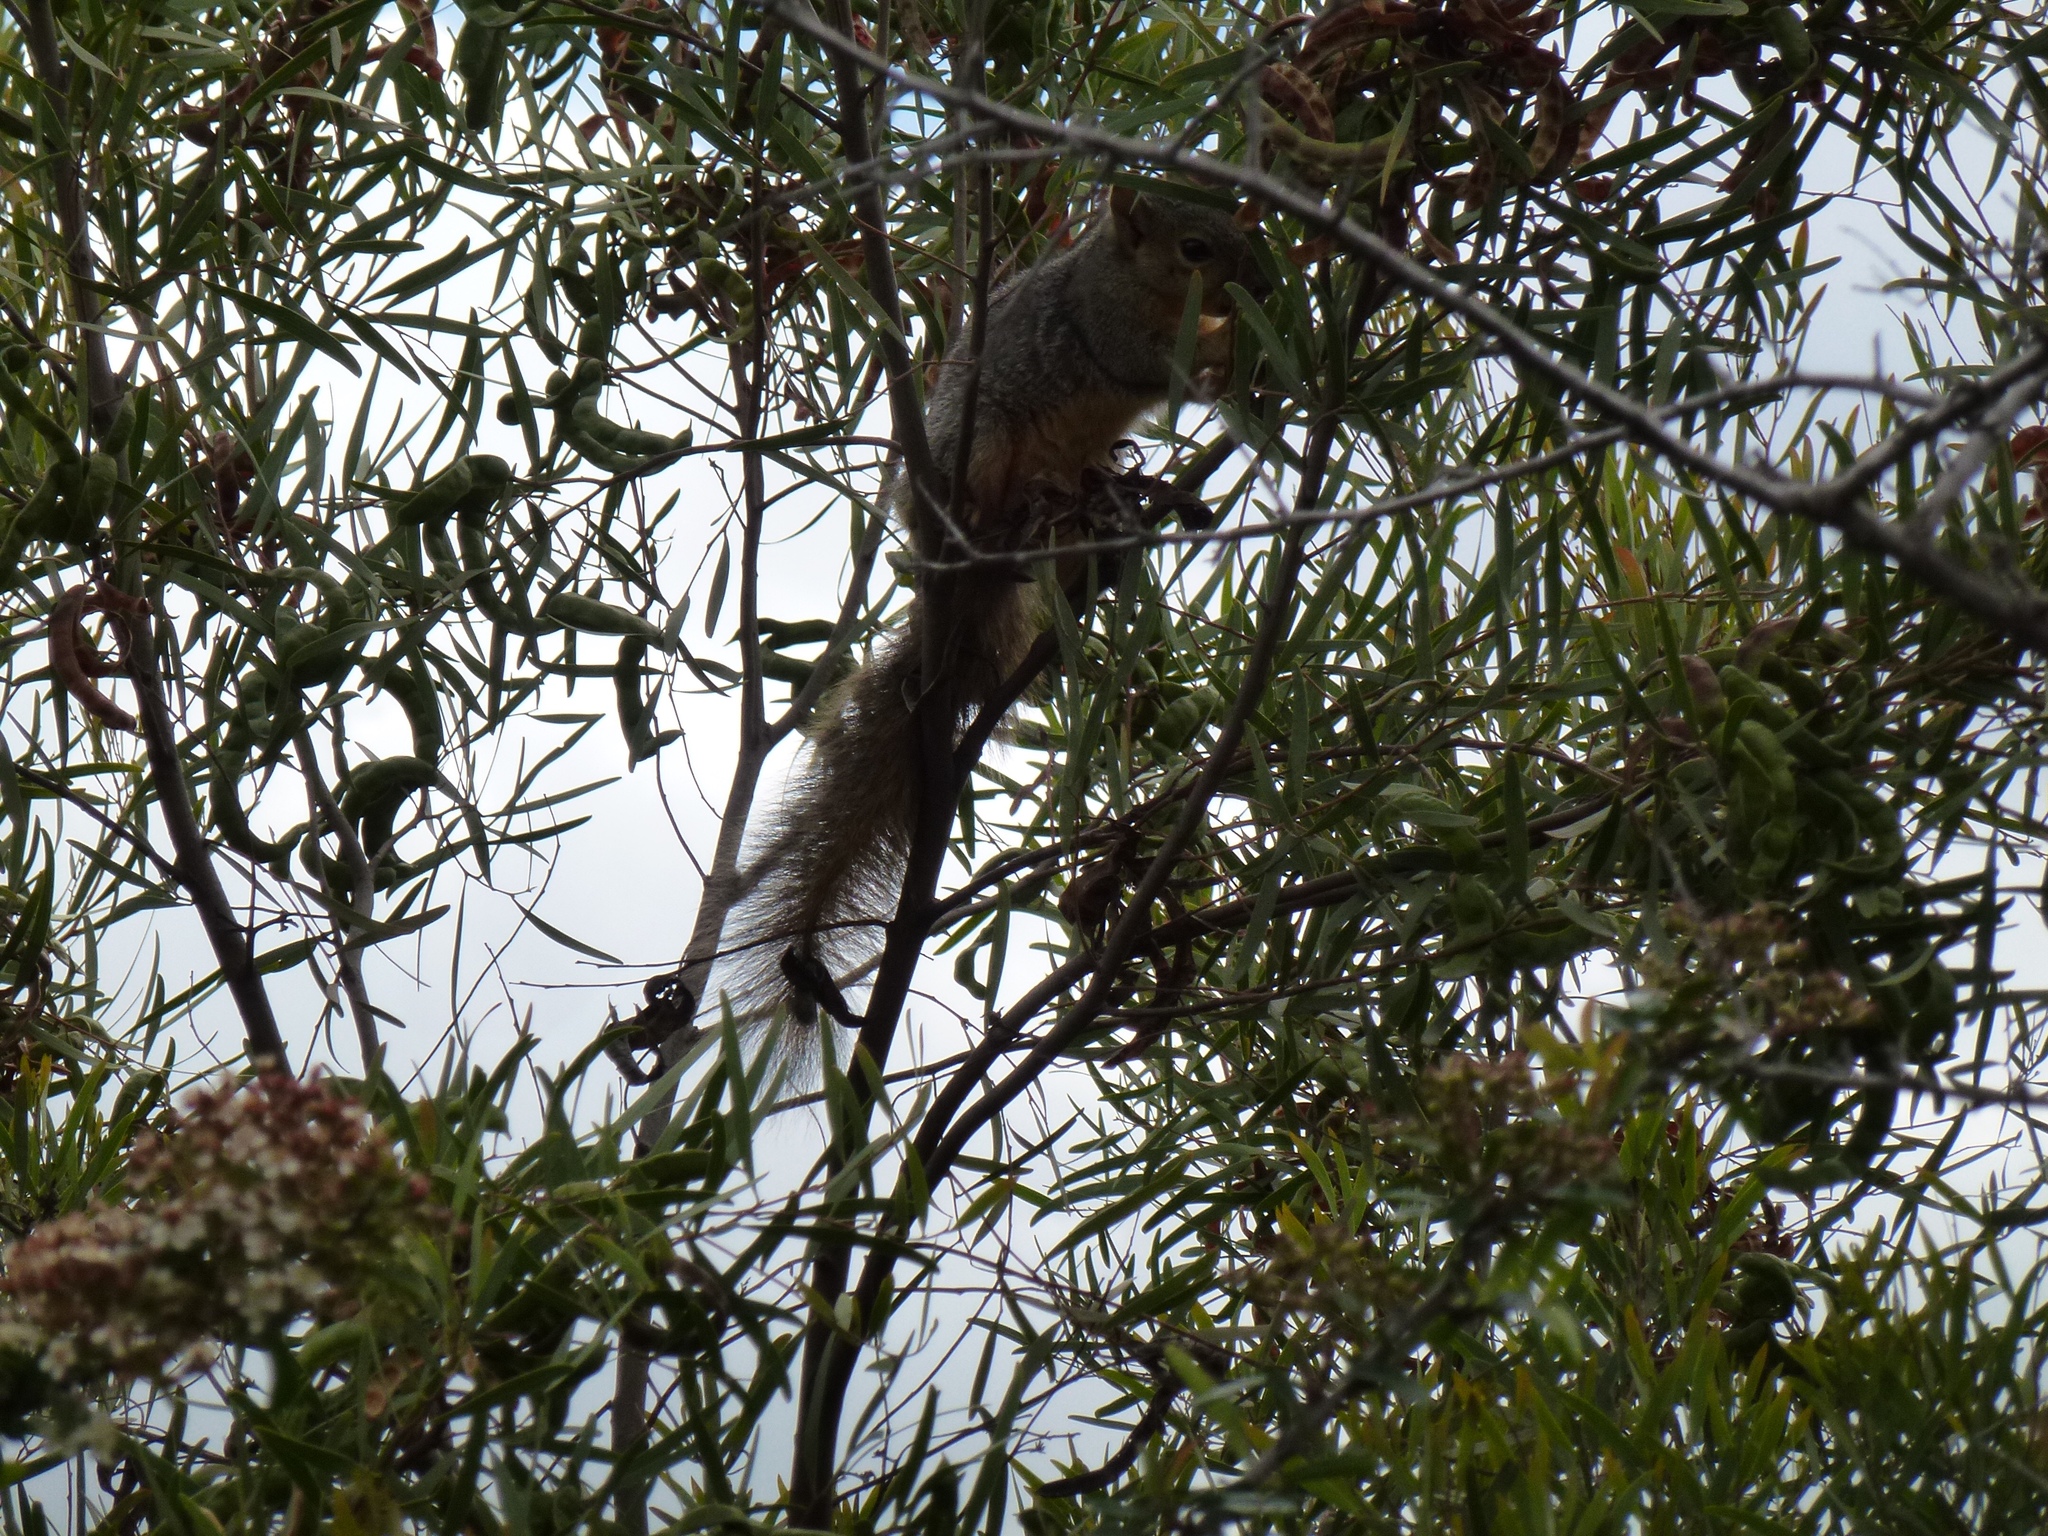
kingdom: Animalia
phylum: Chordata
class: Mammalia
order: Rodentia
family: Sciuridae
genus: Sciurus
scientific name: Sciurus niger
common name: Fox squirrel
